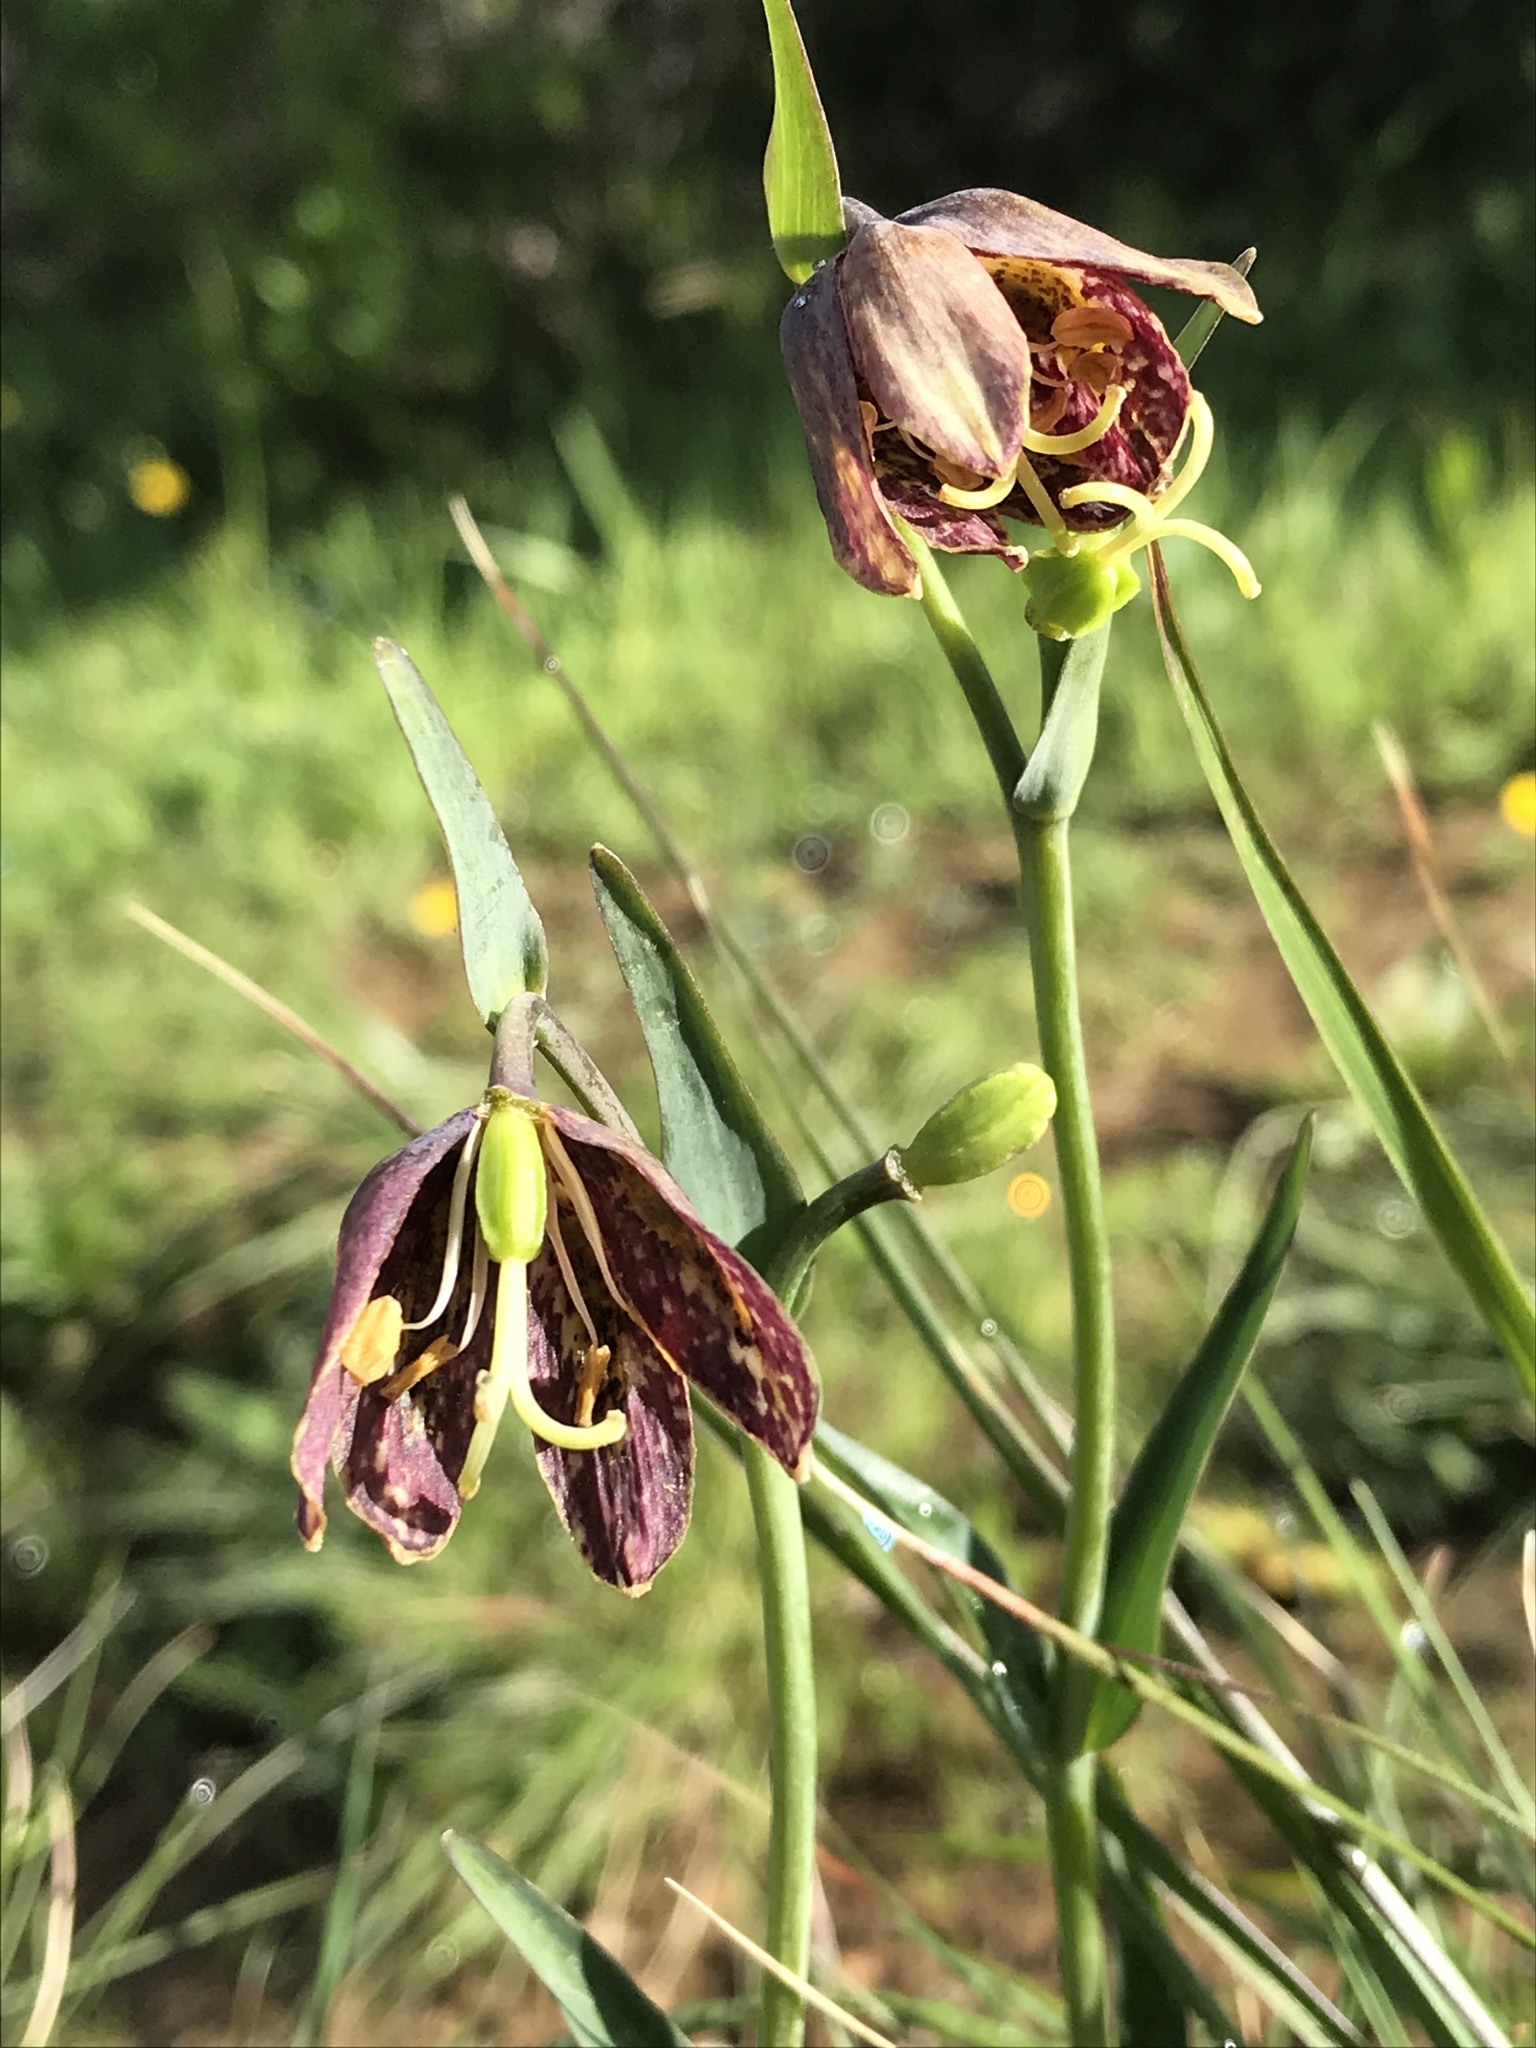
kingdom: Plantae
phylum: Tracheophyta
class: Liliopsida
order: Liliales
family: Liliaceae
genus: Fritillaria
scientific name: Fritillaria affinis
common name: Ojai fritillary
